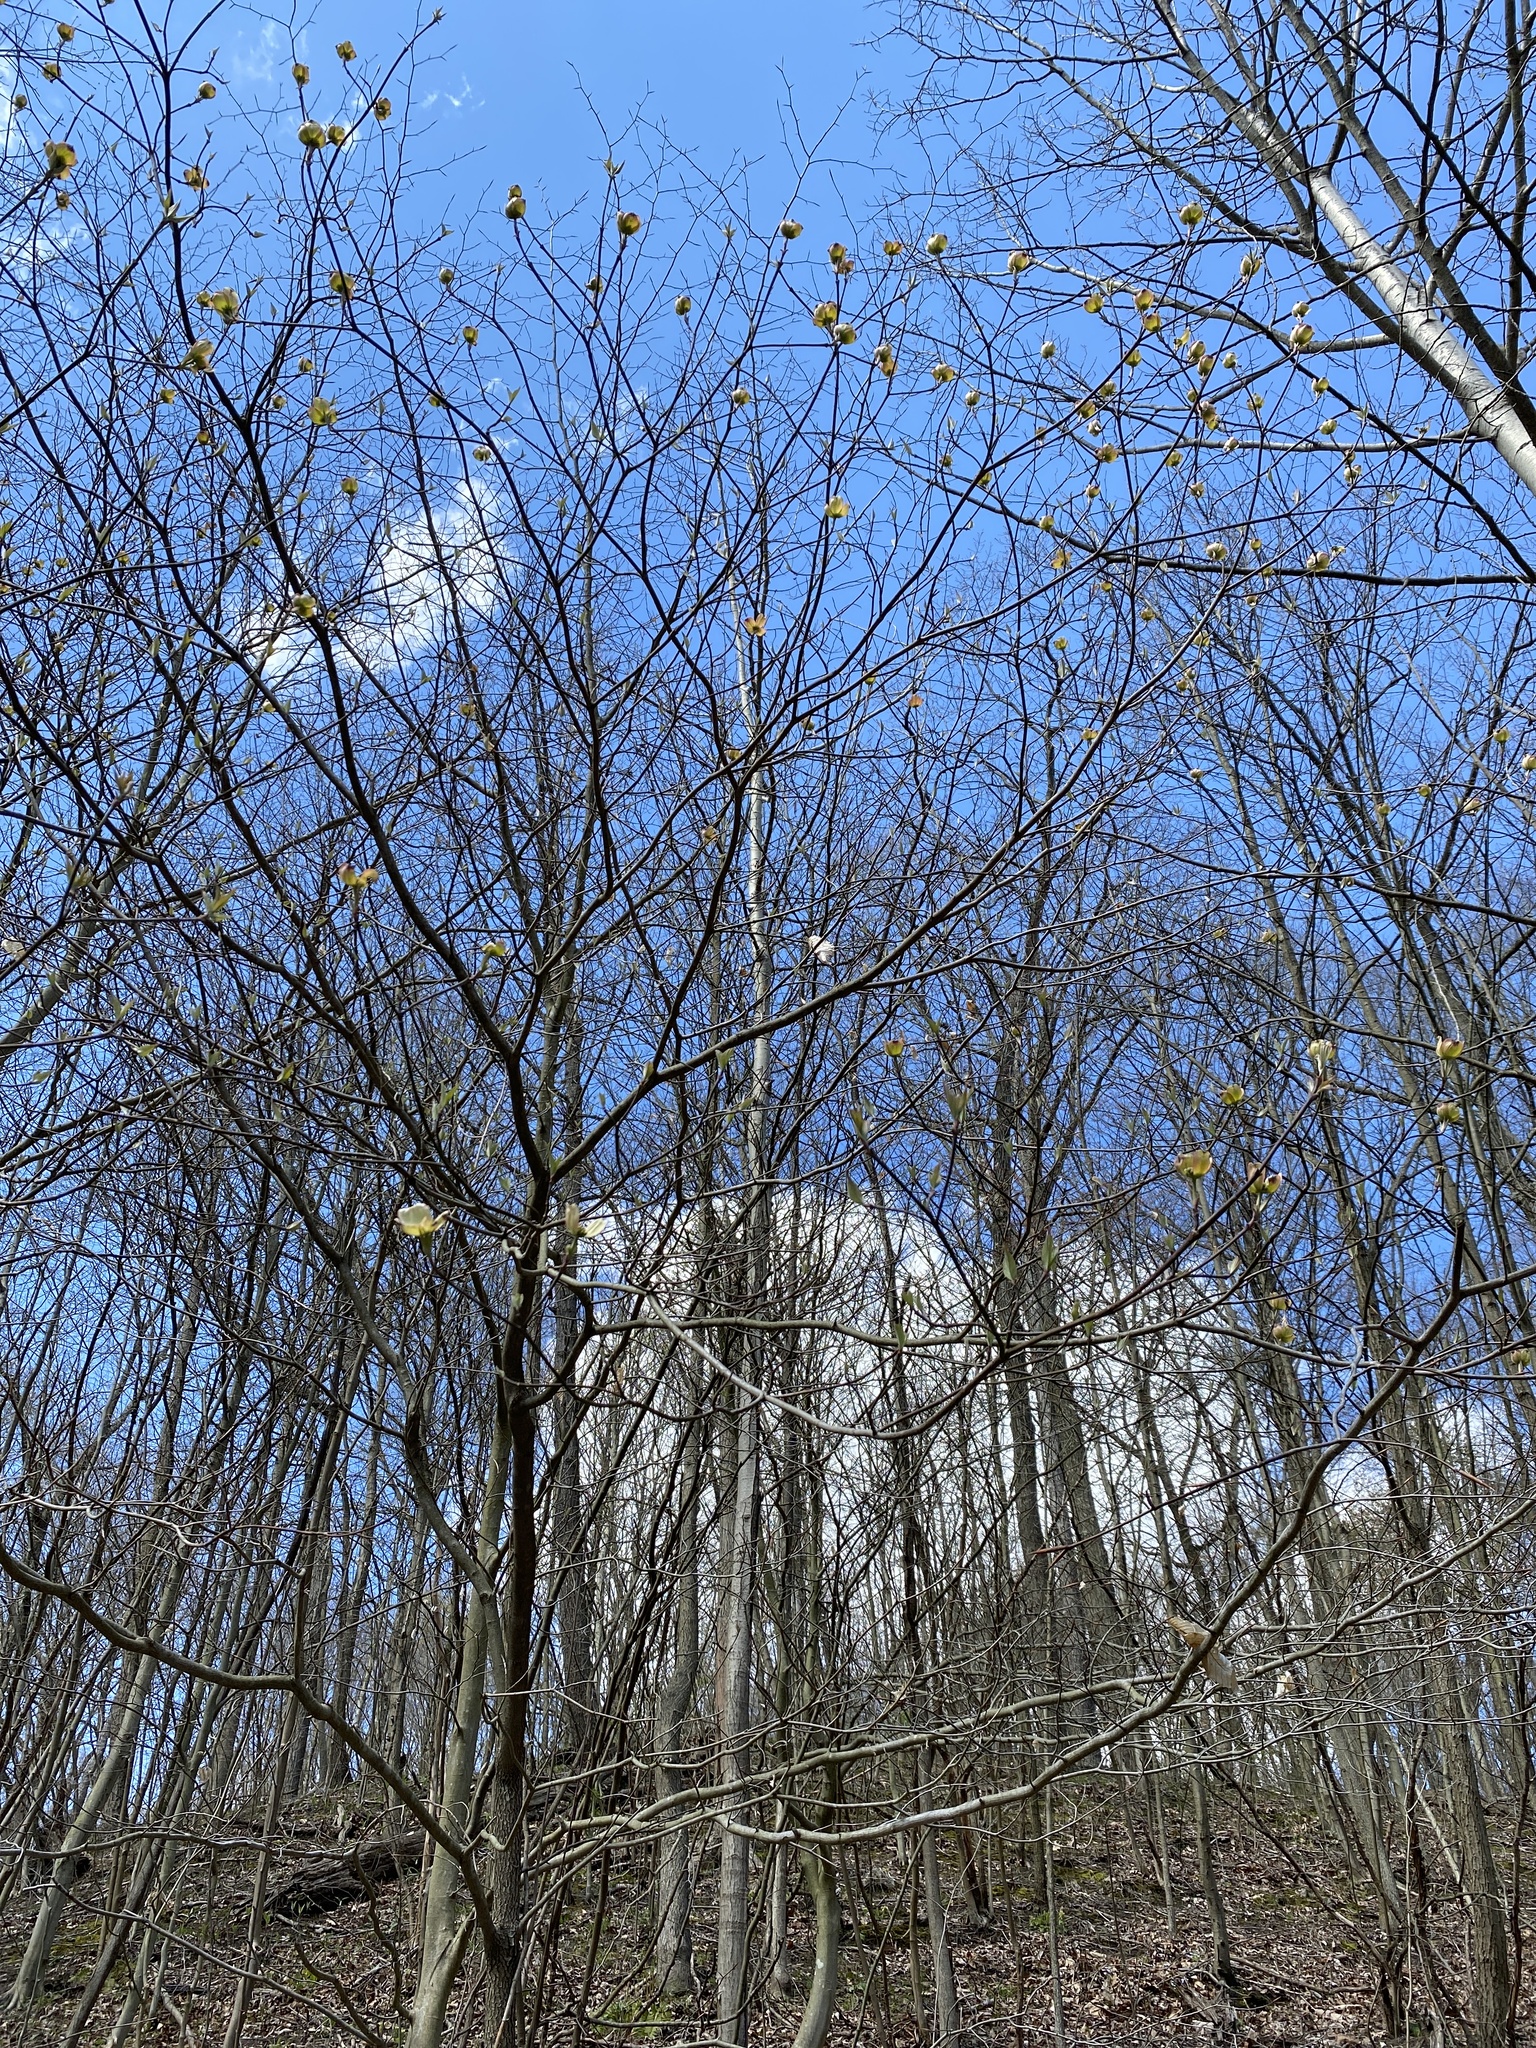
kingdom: Plantae
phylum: Tracheophyta
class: Magnoliopsida
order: Cornales
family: Cornaceae
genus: Cornus
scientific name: Cornus florida
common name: Flowering dogwood
